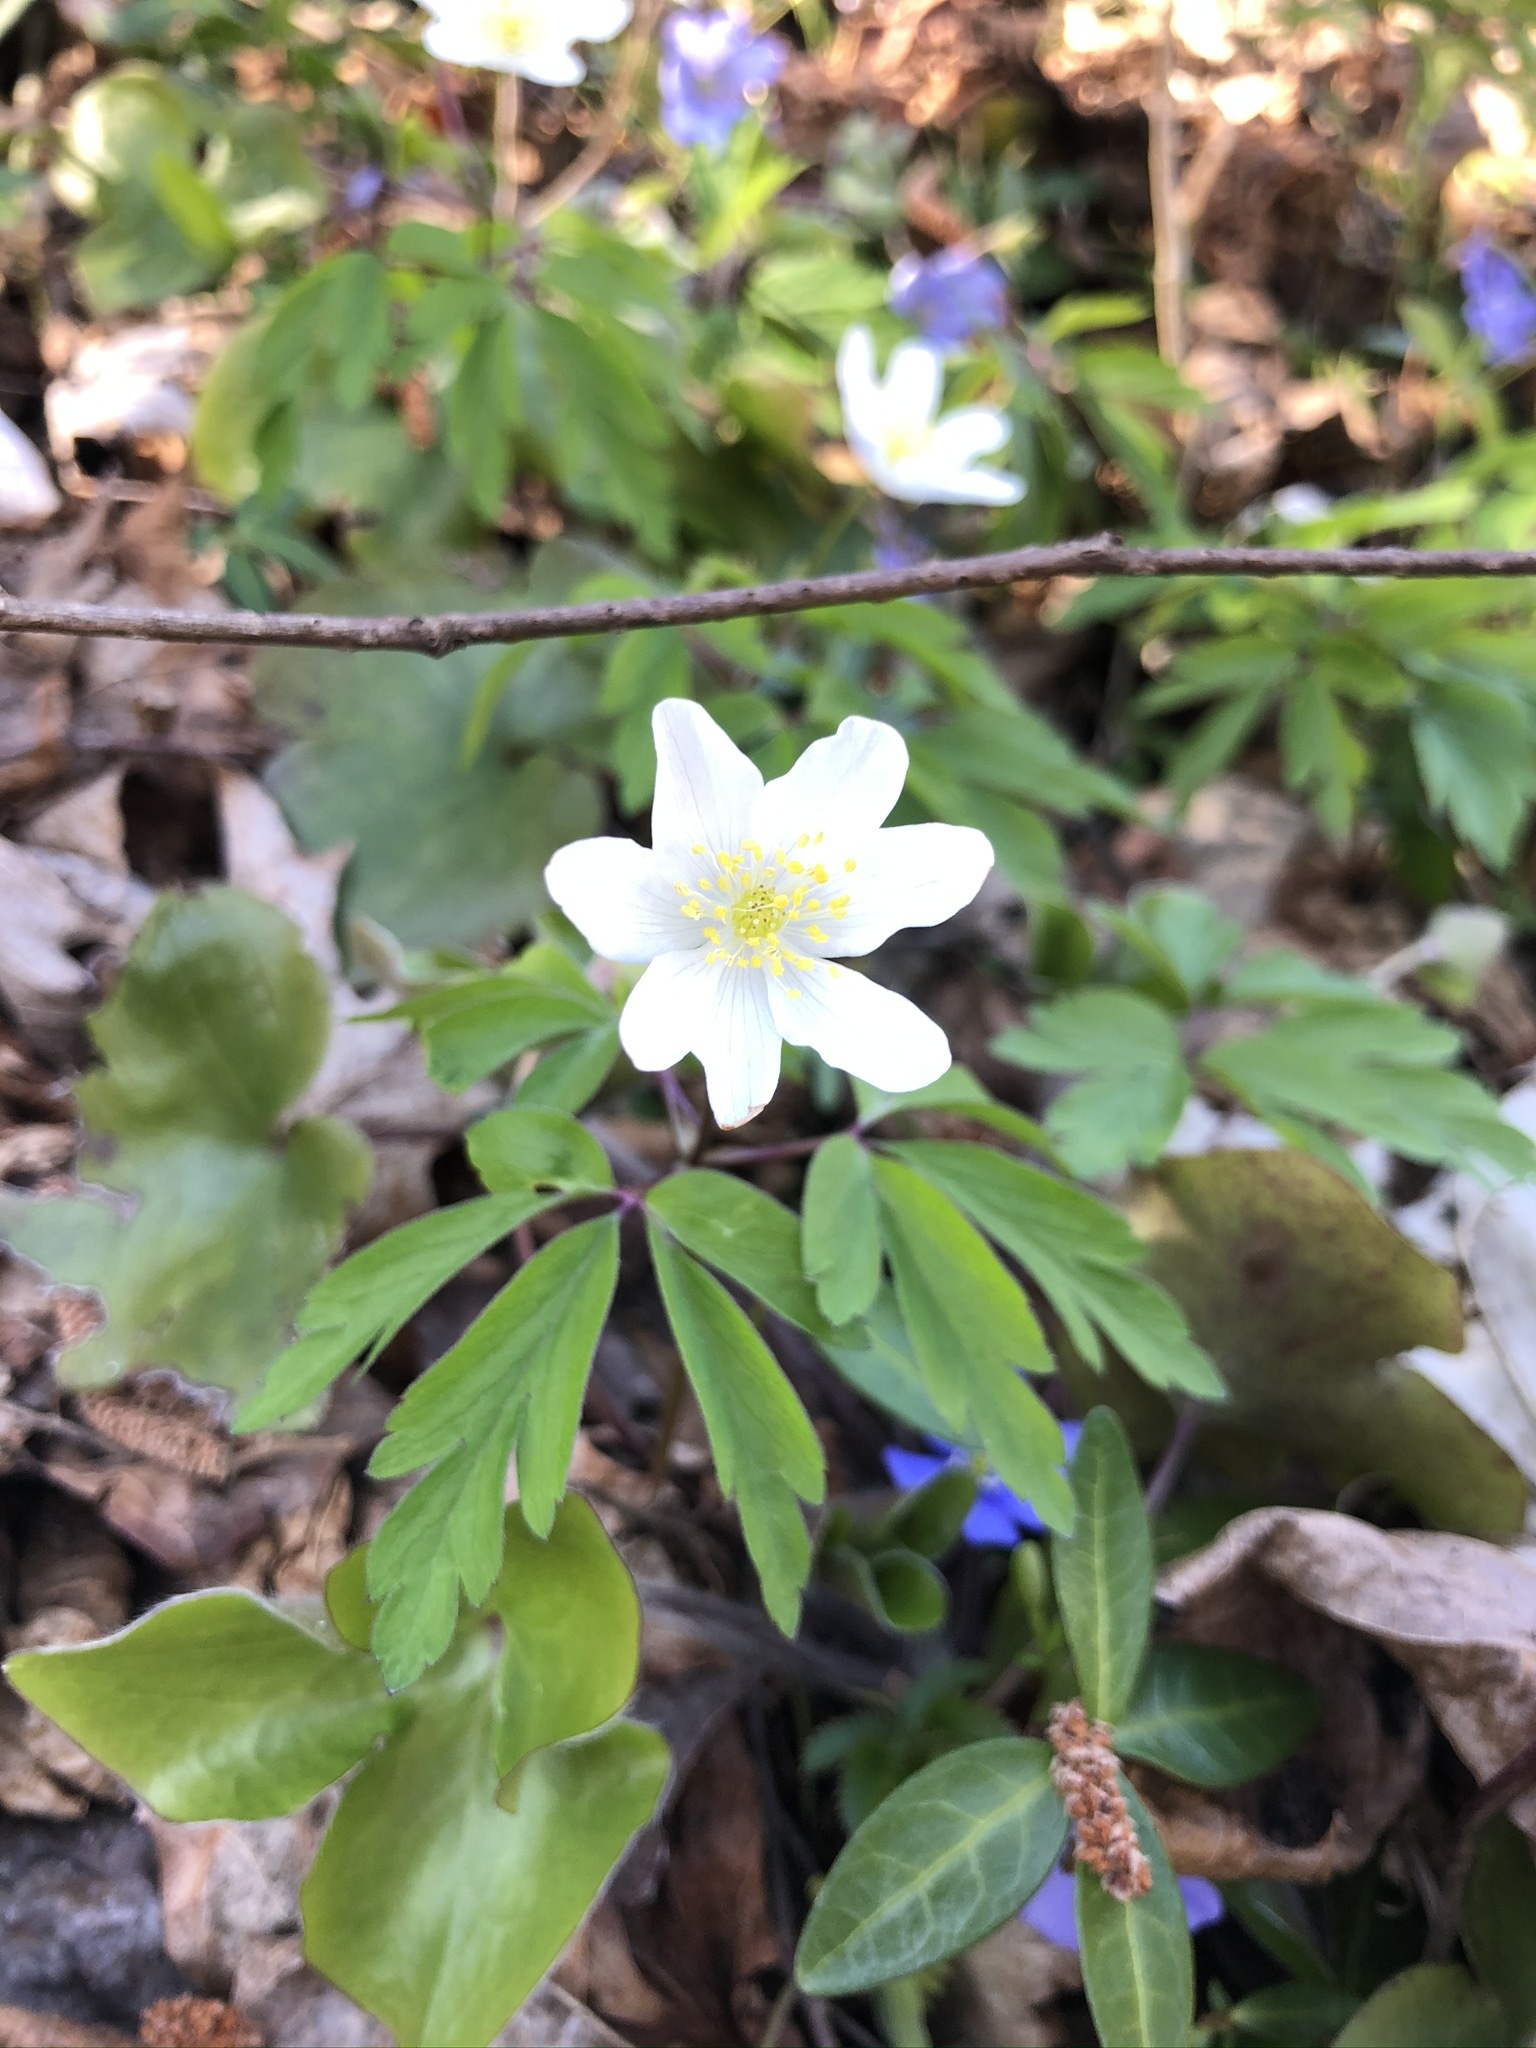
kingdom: Plantae
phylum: Tracheophyta
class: Magnoliopsida
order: Ranunculales
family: Ranunculaceae
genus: Anemone
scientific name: Anemone nemorosa
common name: Wood anemone
